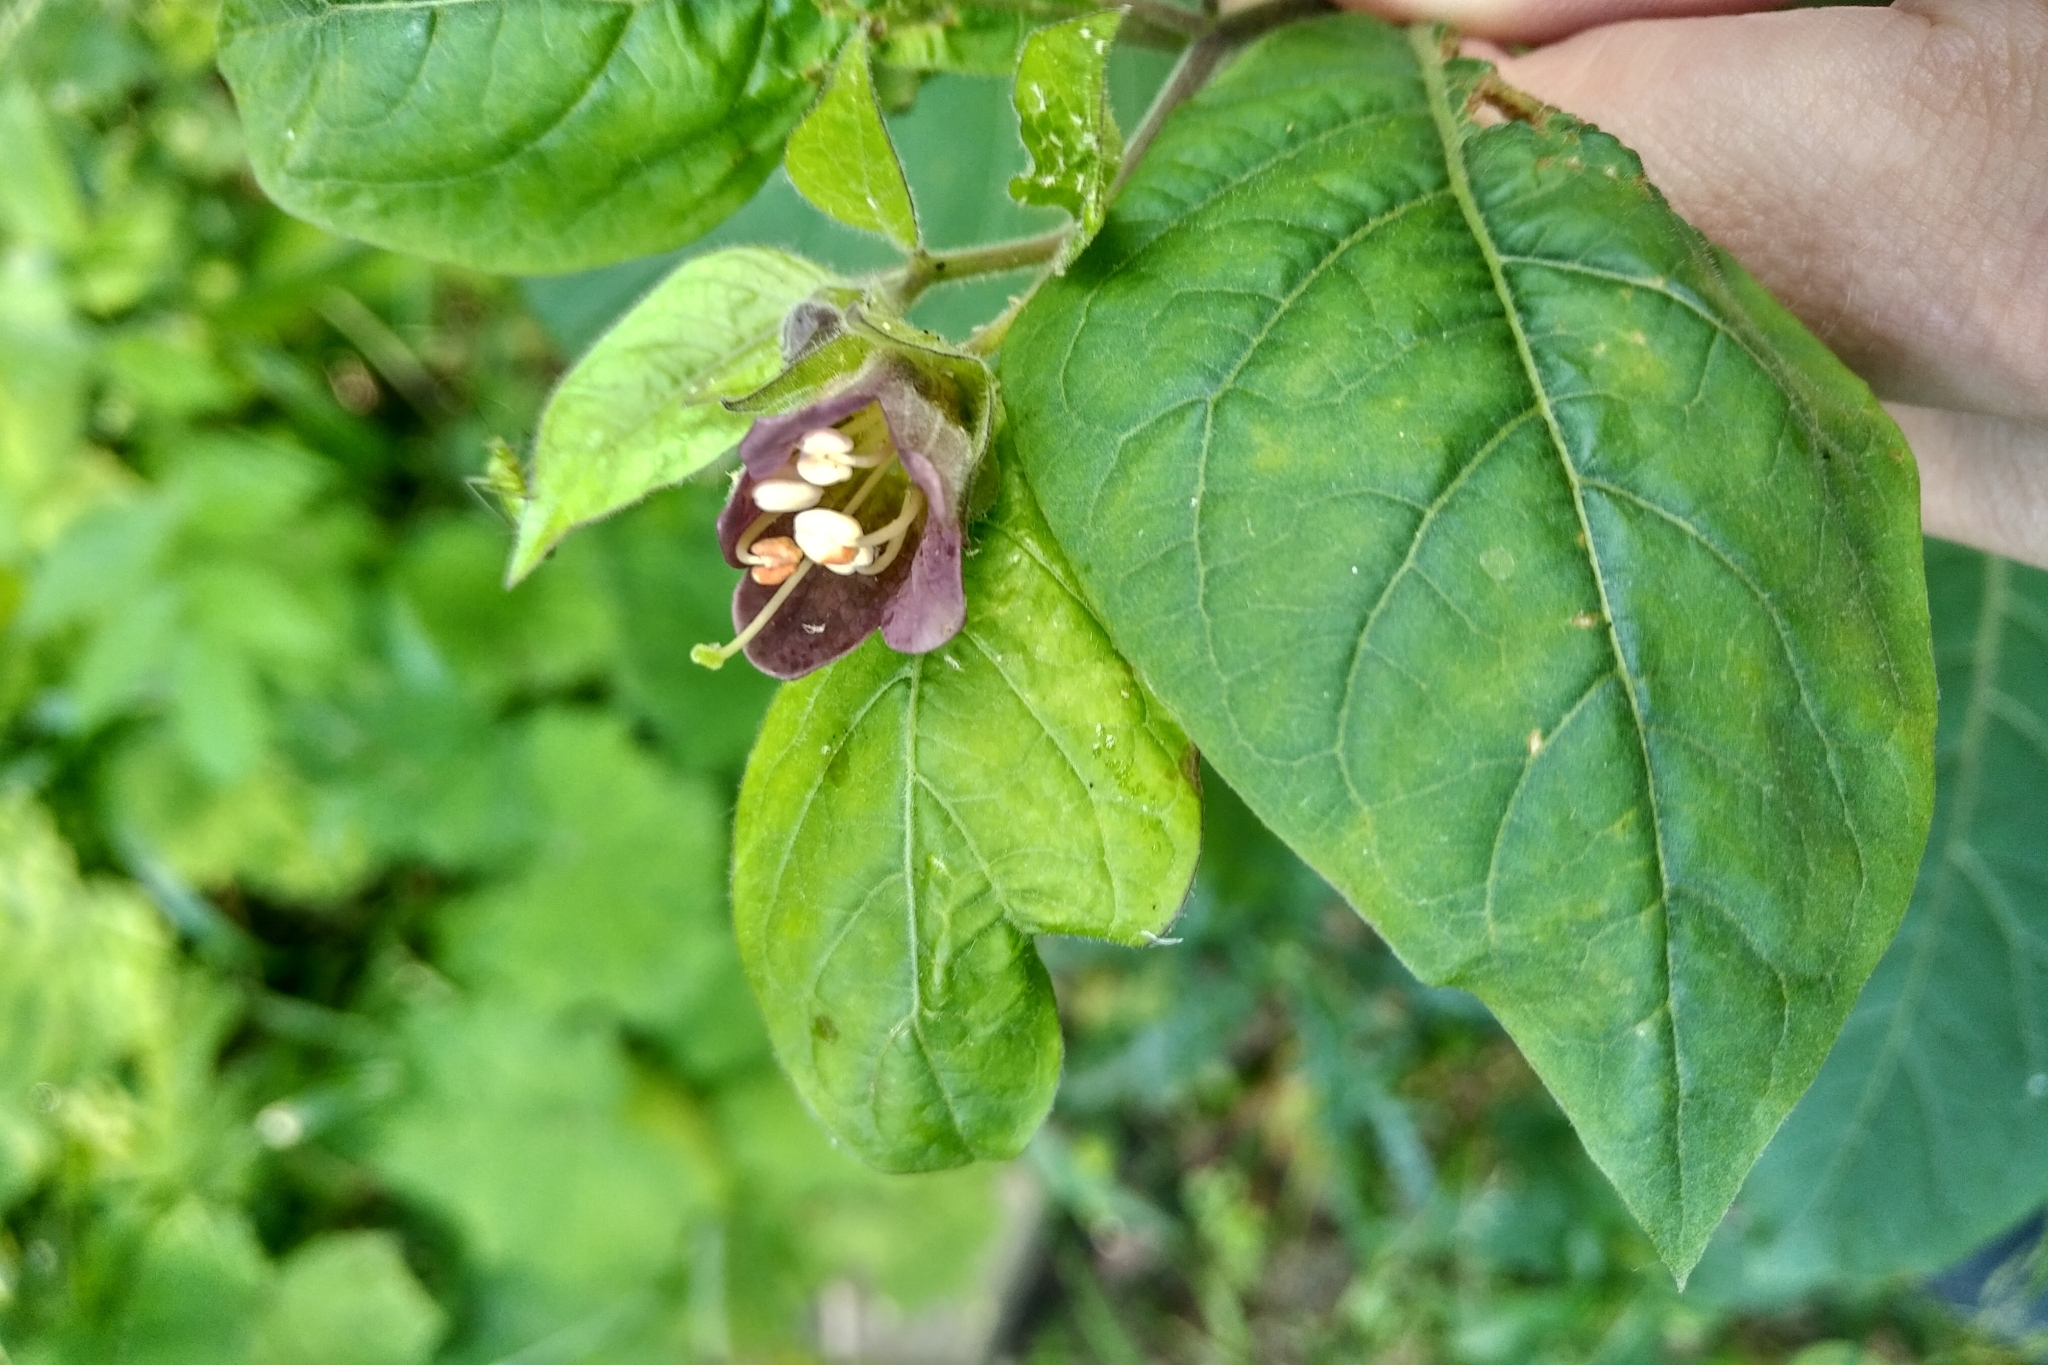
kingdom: Plantae
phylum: Tracheophyta
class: Magnoliopsida
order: Solanales
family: Solanaceae
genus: Atropa
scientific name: Atropa belladonna
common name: Deadly nightshade
